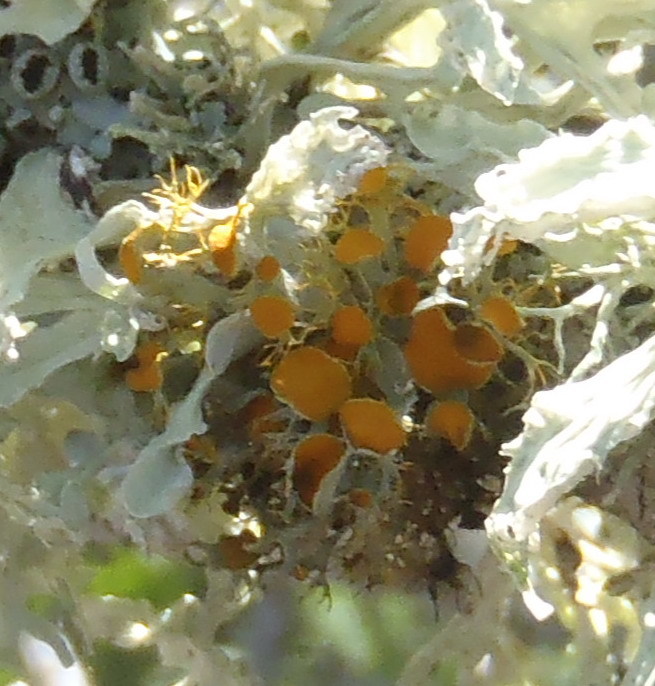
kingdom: Fungi
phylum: Ascomycota
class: Lecanoromycetes
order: Teloschistales
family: Teloschistaceae
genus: Teloschistes
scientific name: Teloschistes pulvinaris
